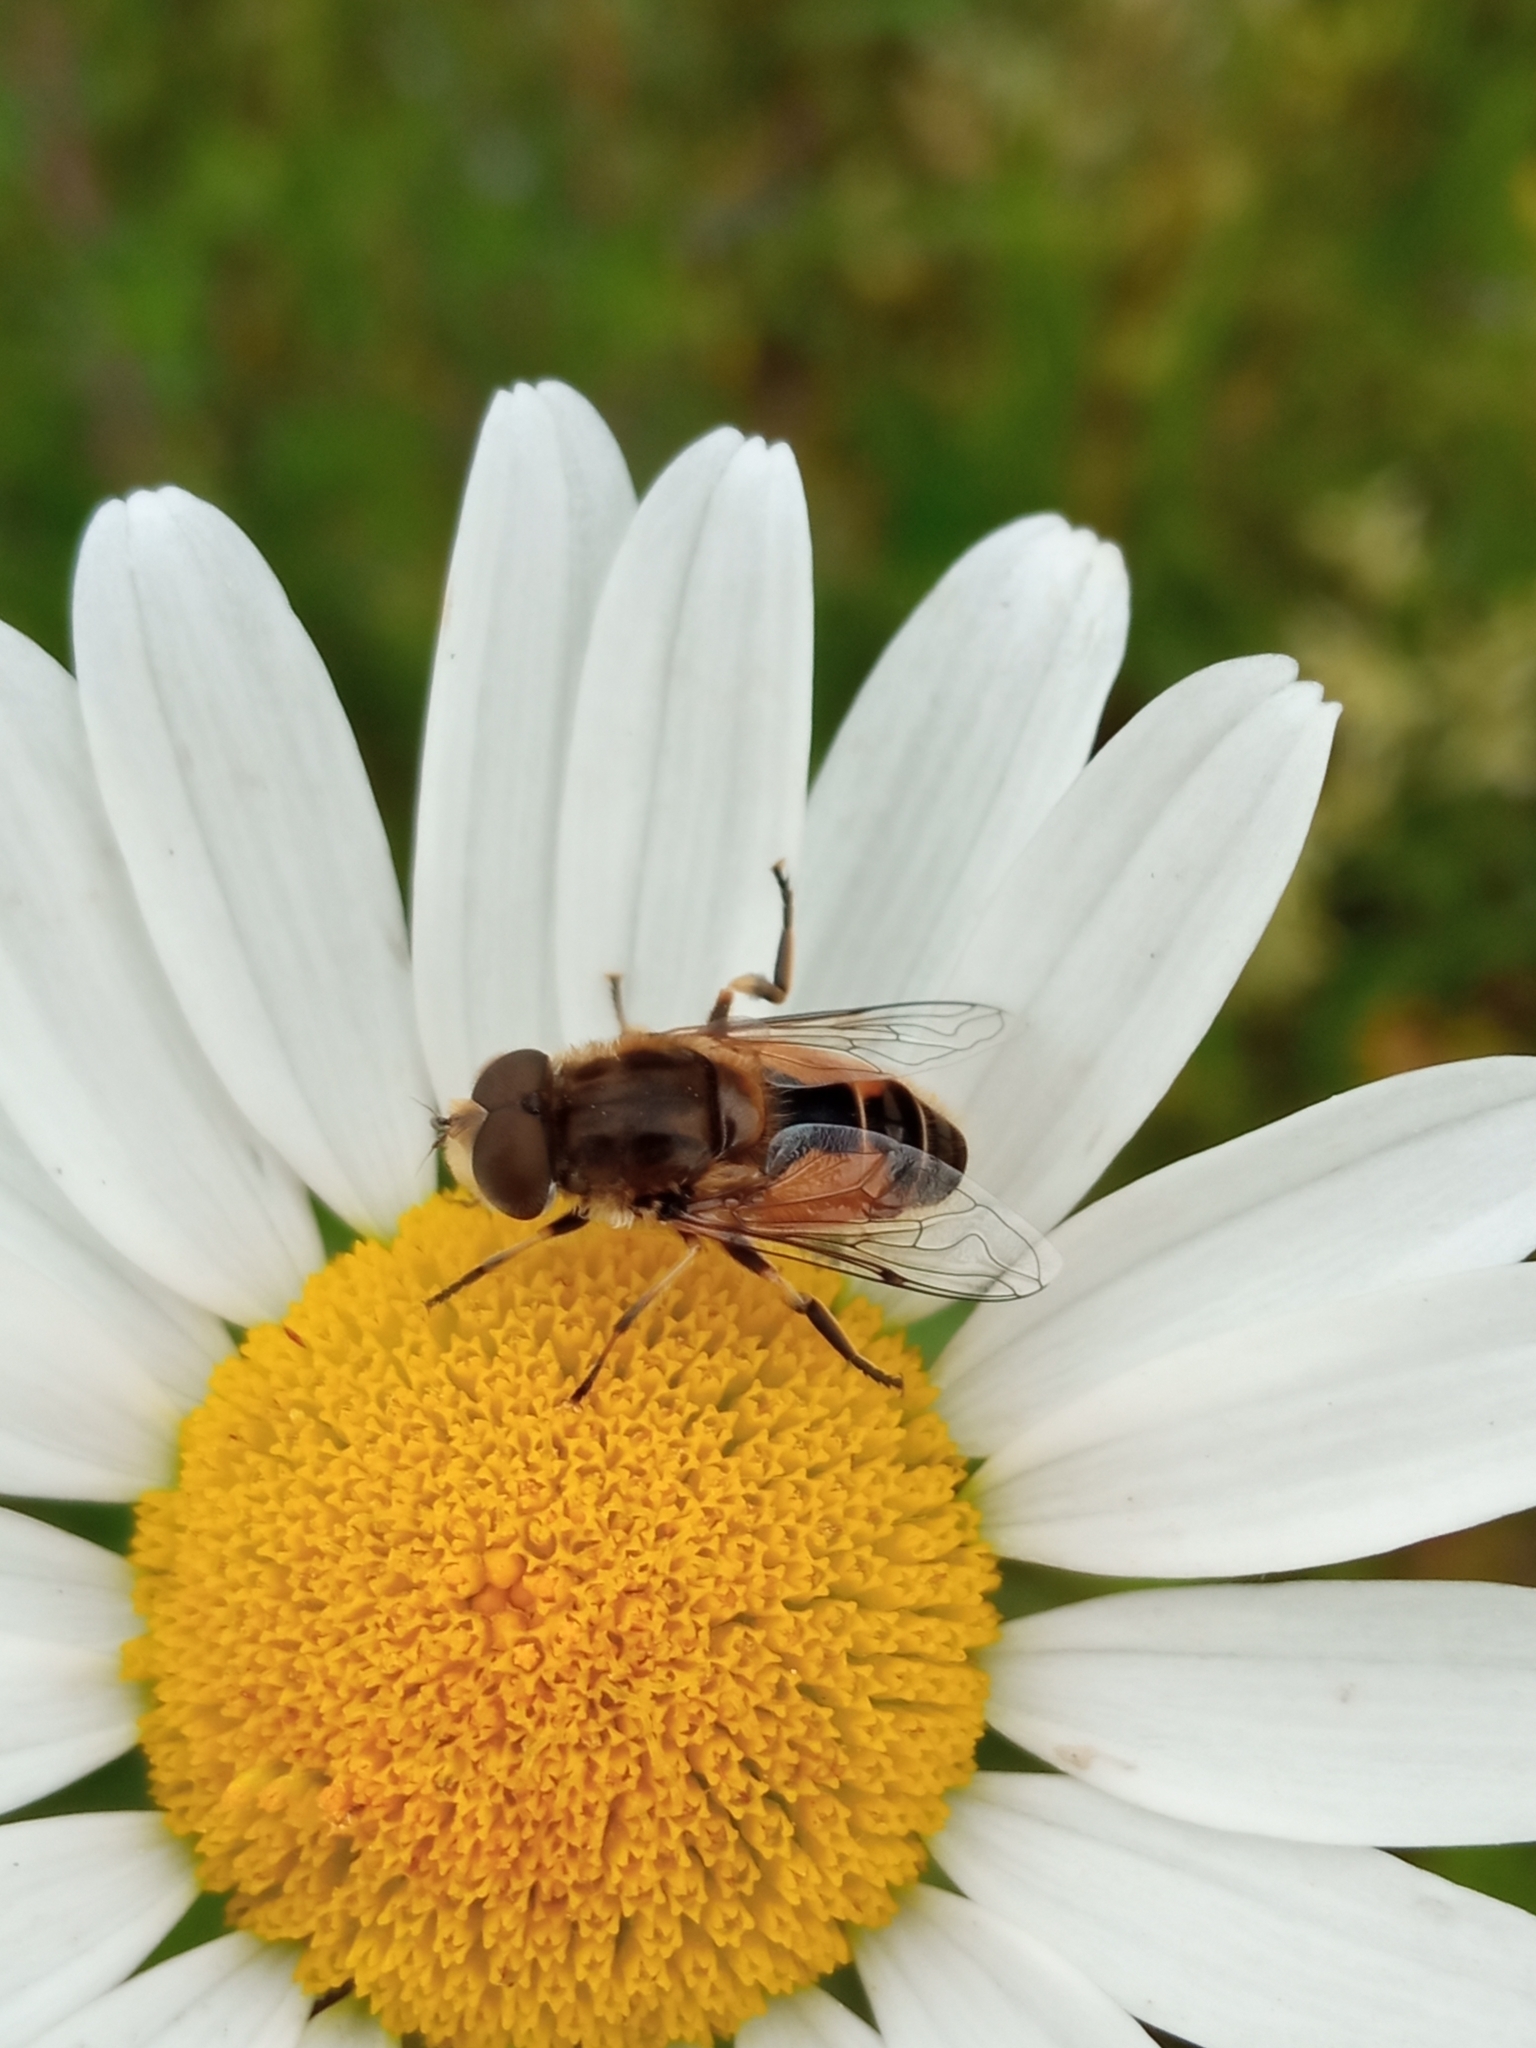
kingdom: Animalia
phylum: Arthropoda
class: Insecta
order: Diptera
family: Syrphidae
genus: Eristalis
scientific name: Eristalis arbustorum
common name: Hover fly
